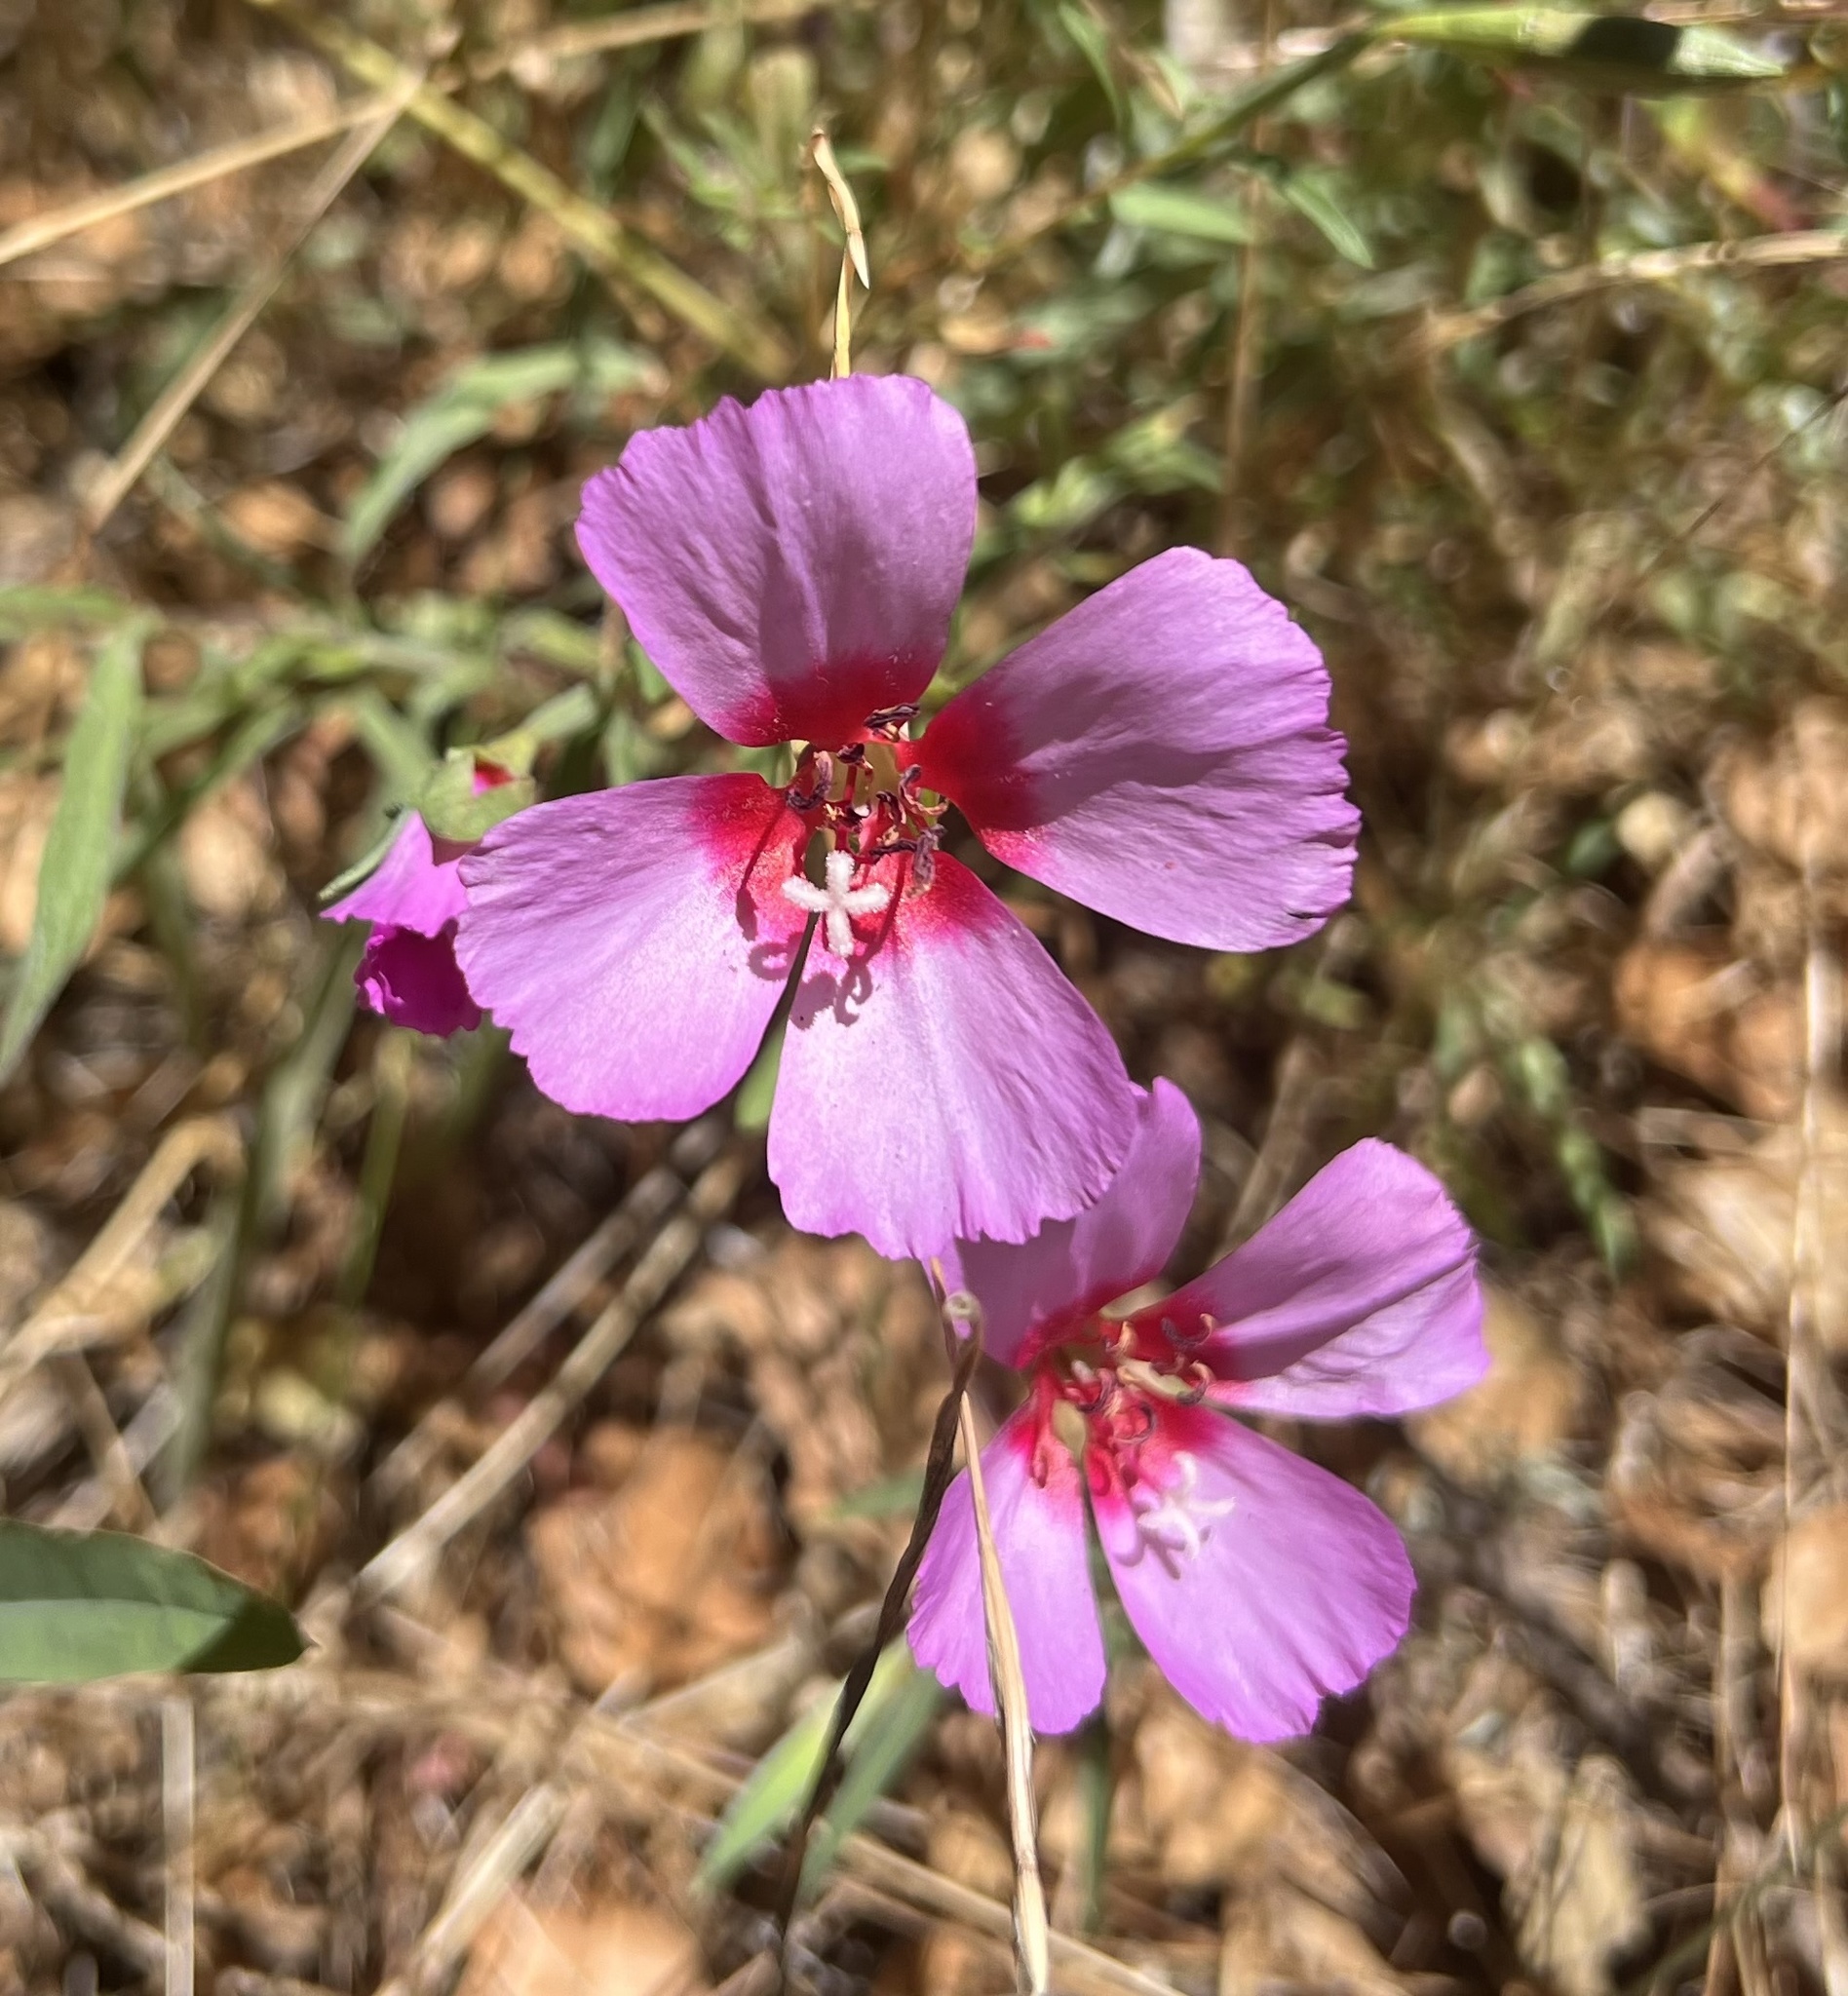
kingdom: Plantae
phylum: Tracheophyta
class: Magnoliopsida
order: Myrtales
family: Onagraceae
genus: Clarkia
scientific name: Clarkia rubicunda
